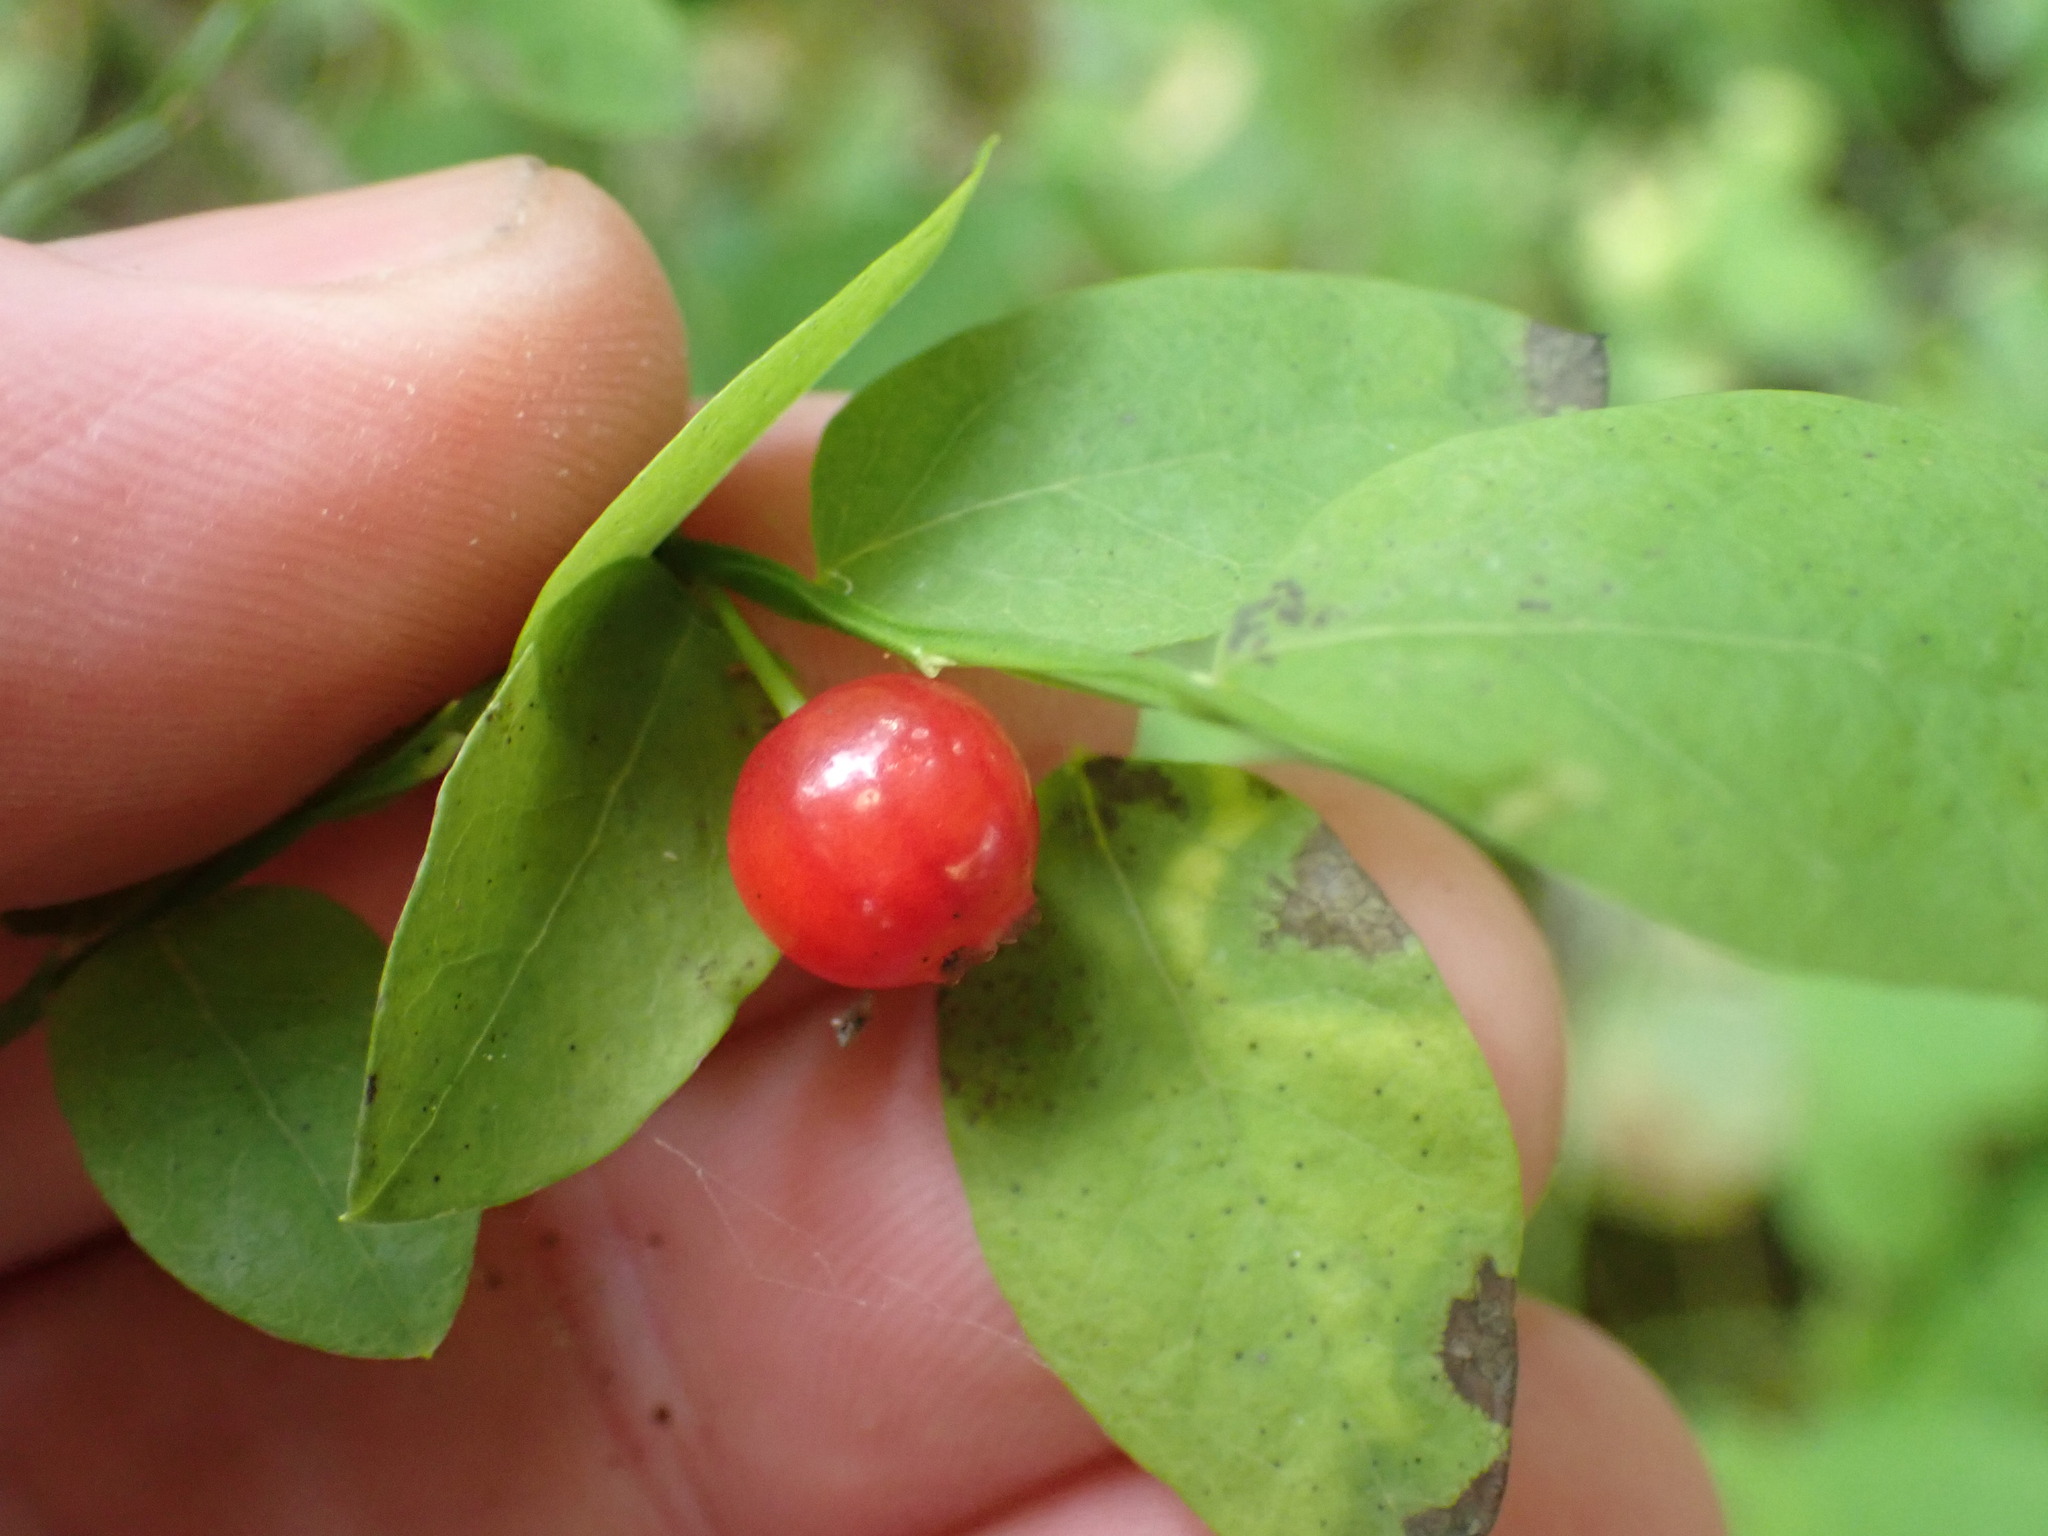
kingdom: Plantae
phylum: Tracheophyta
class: Magnoliopsida
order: Ericales
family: Ericaceae
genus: Vaccinium
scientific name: Vaccinium parvifolium
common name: Red-huckleberry
